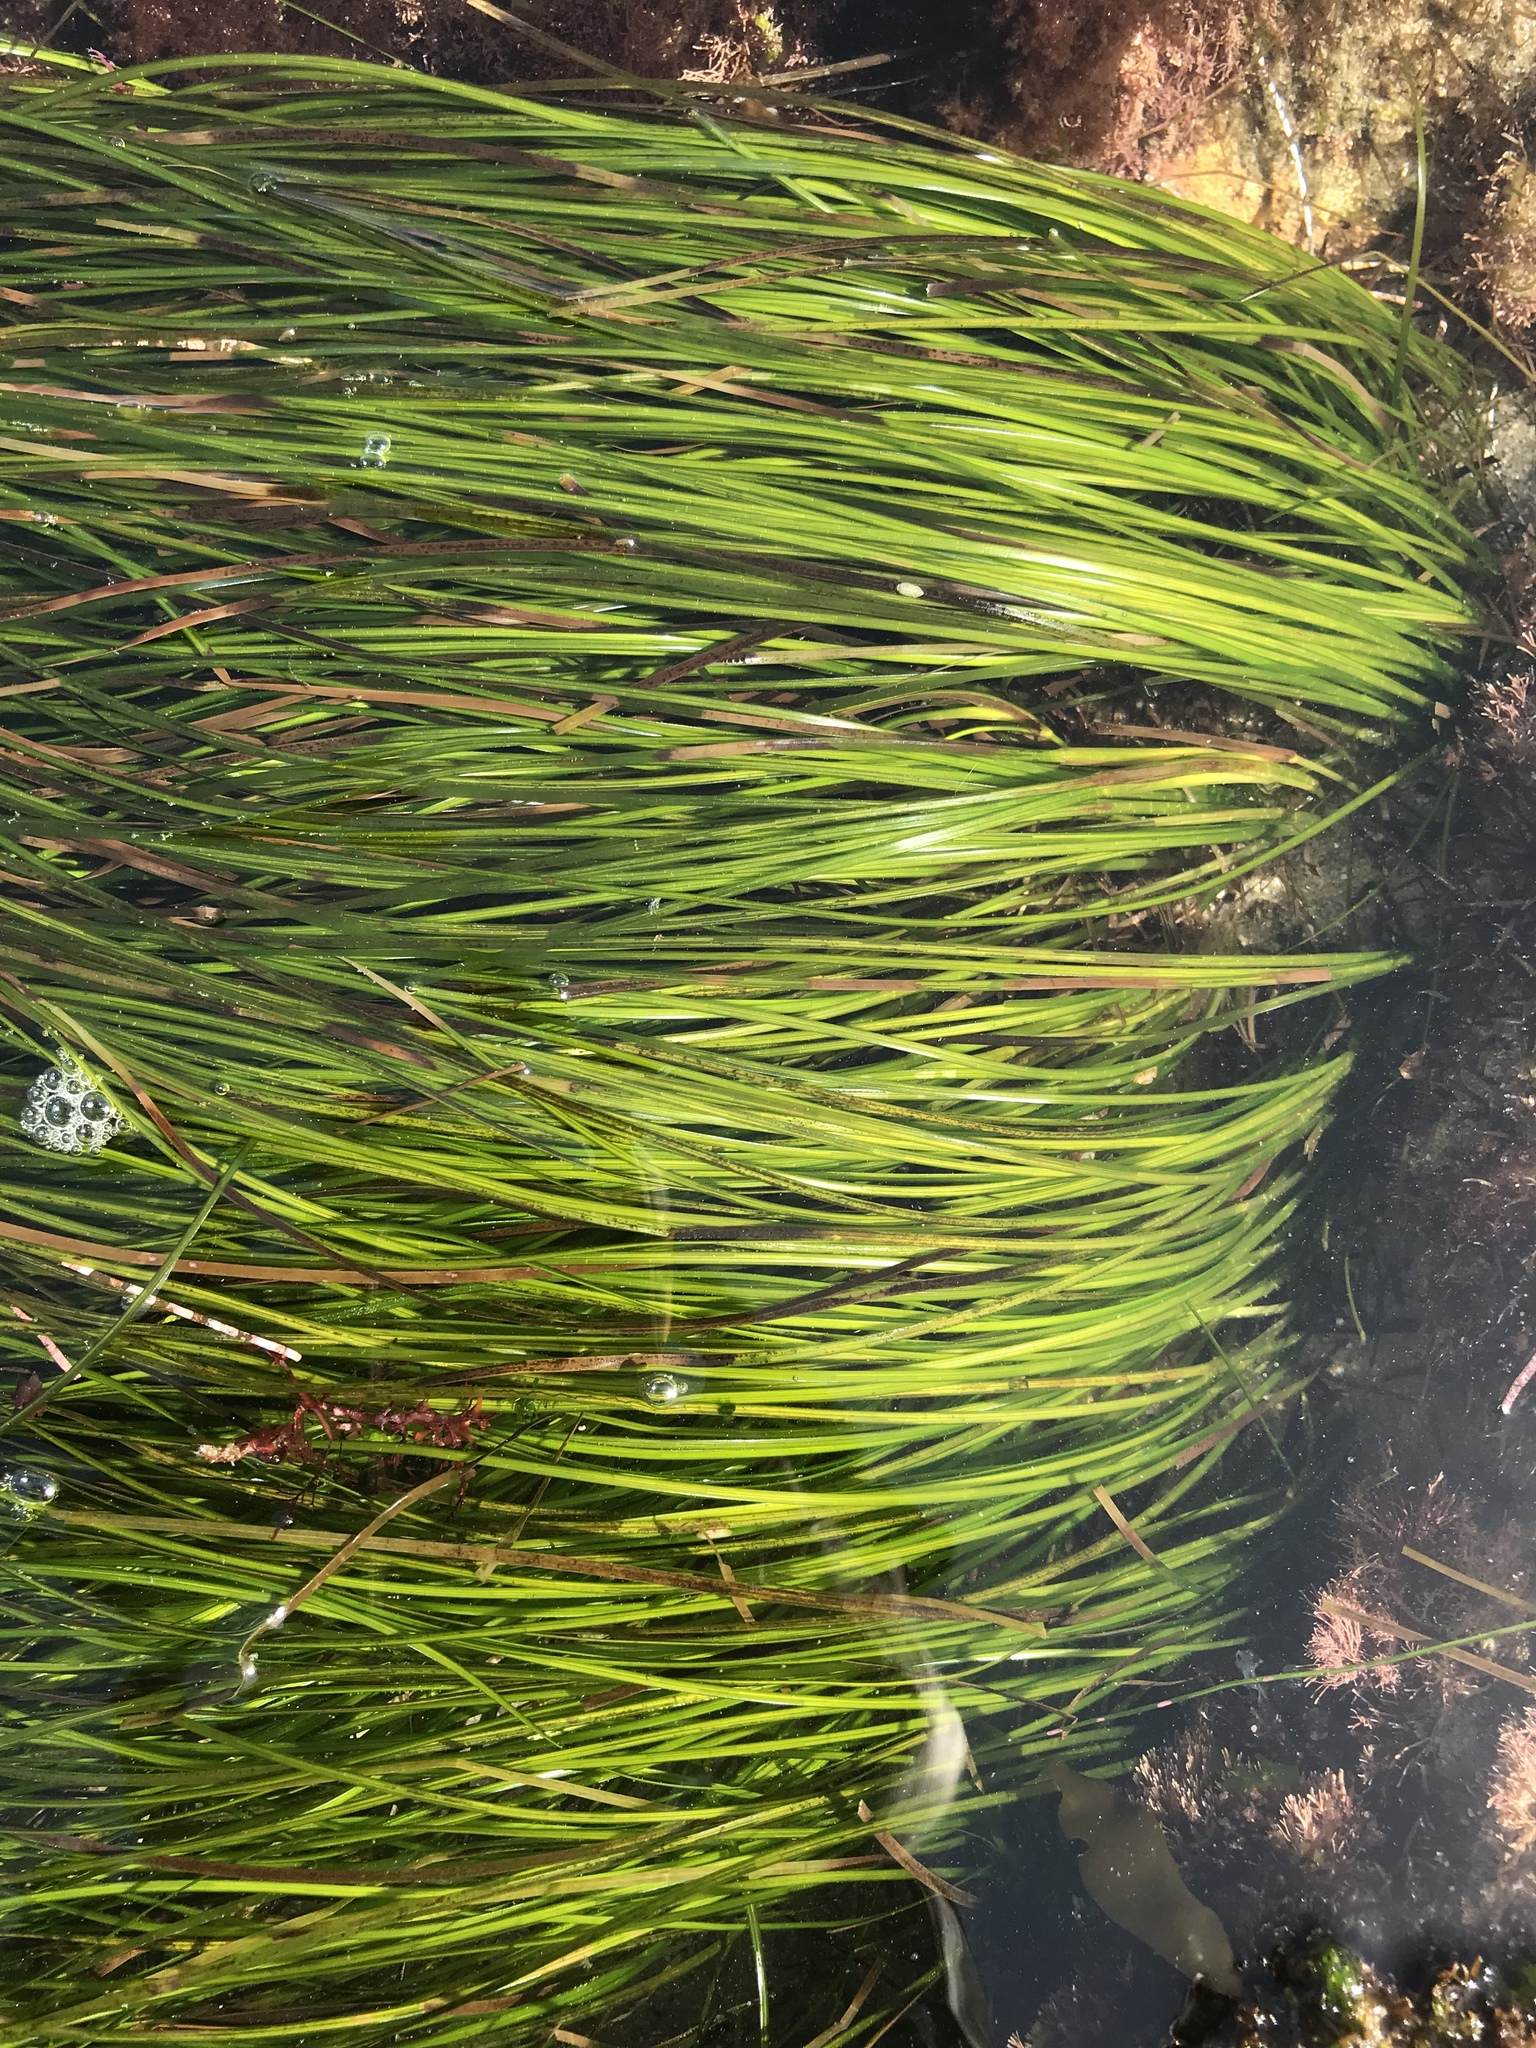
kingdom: Plantae
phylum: Tracheophyta
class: Liliopsida
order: Alismatales
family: Zosteraceae
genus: Phyllospadix
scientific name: Phyllospadix torreyi
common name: Surfgrass
